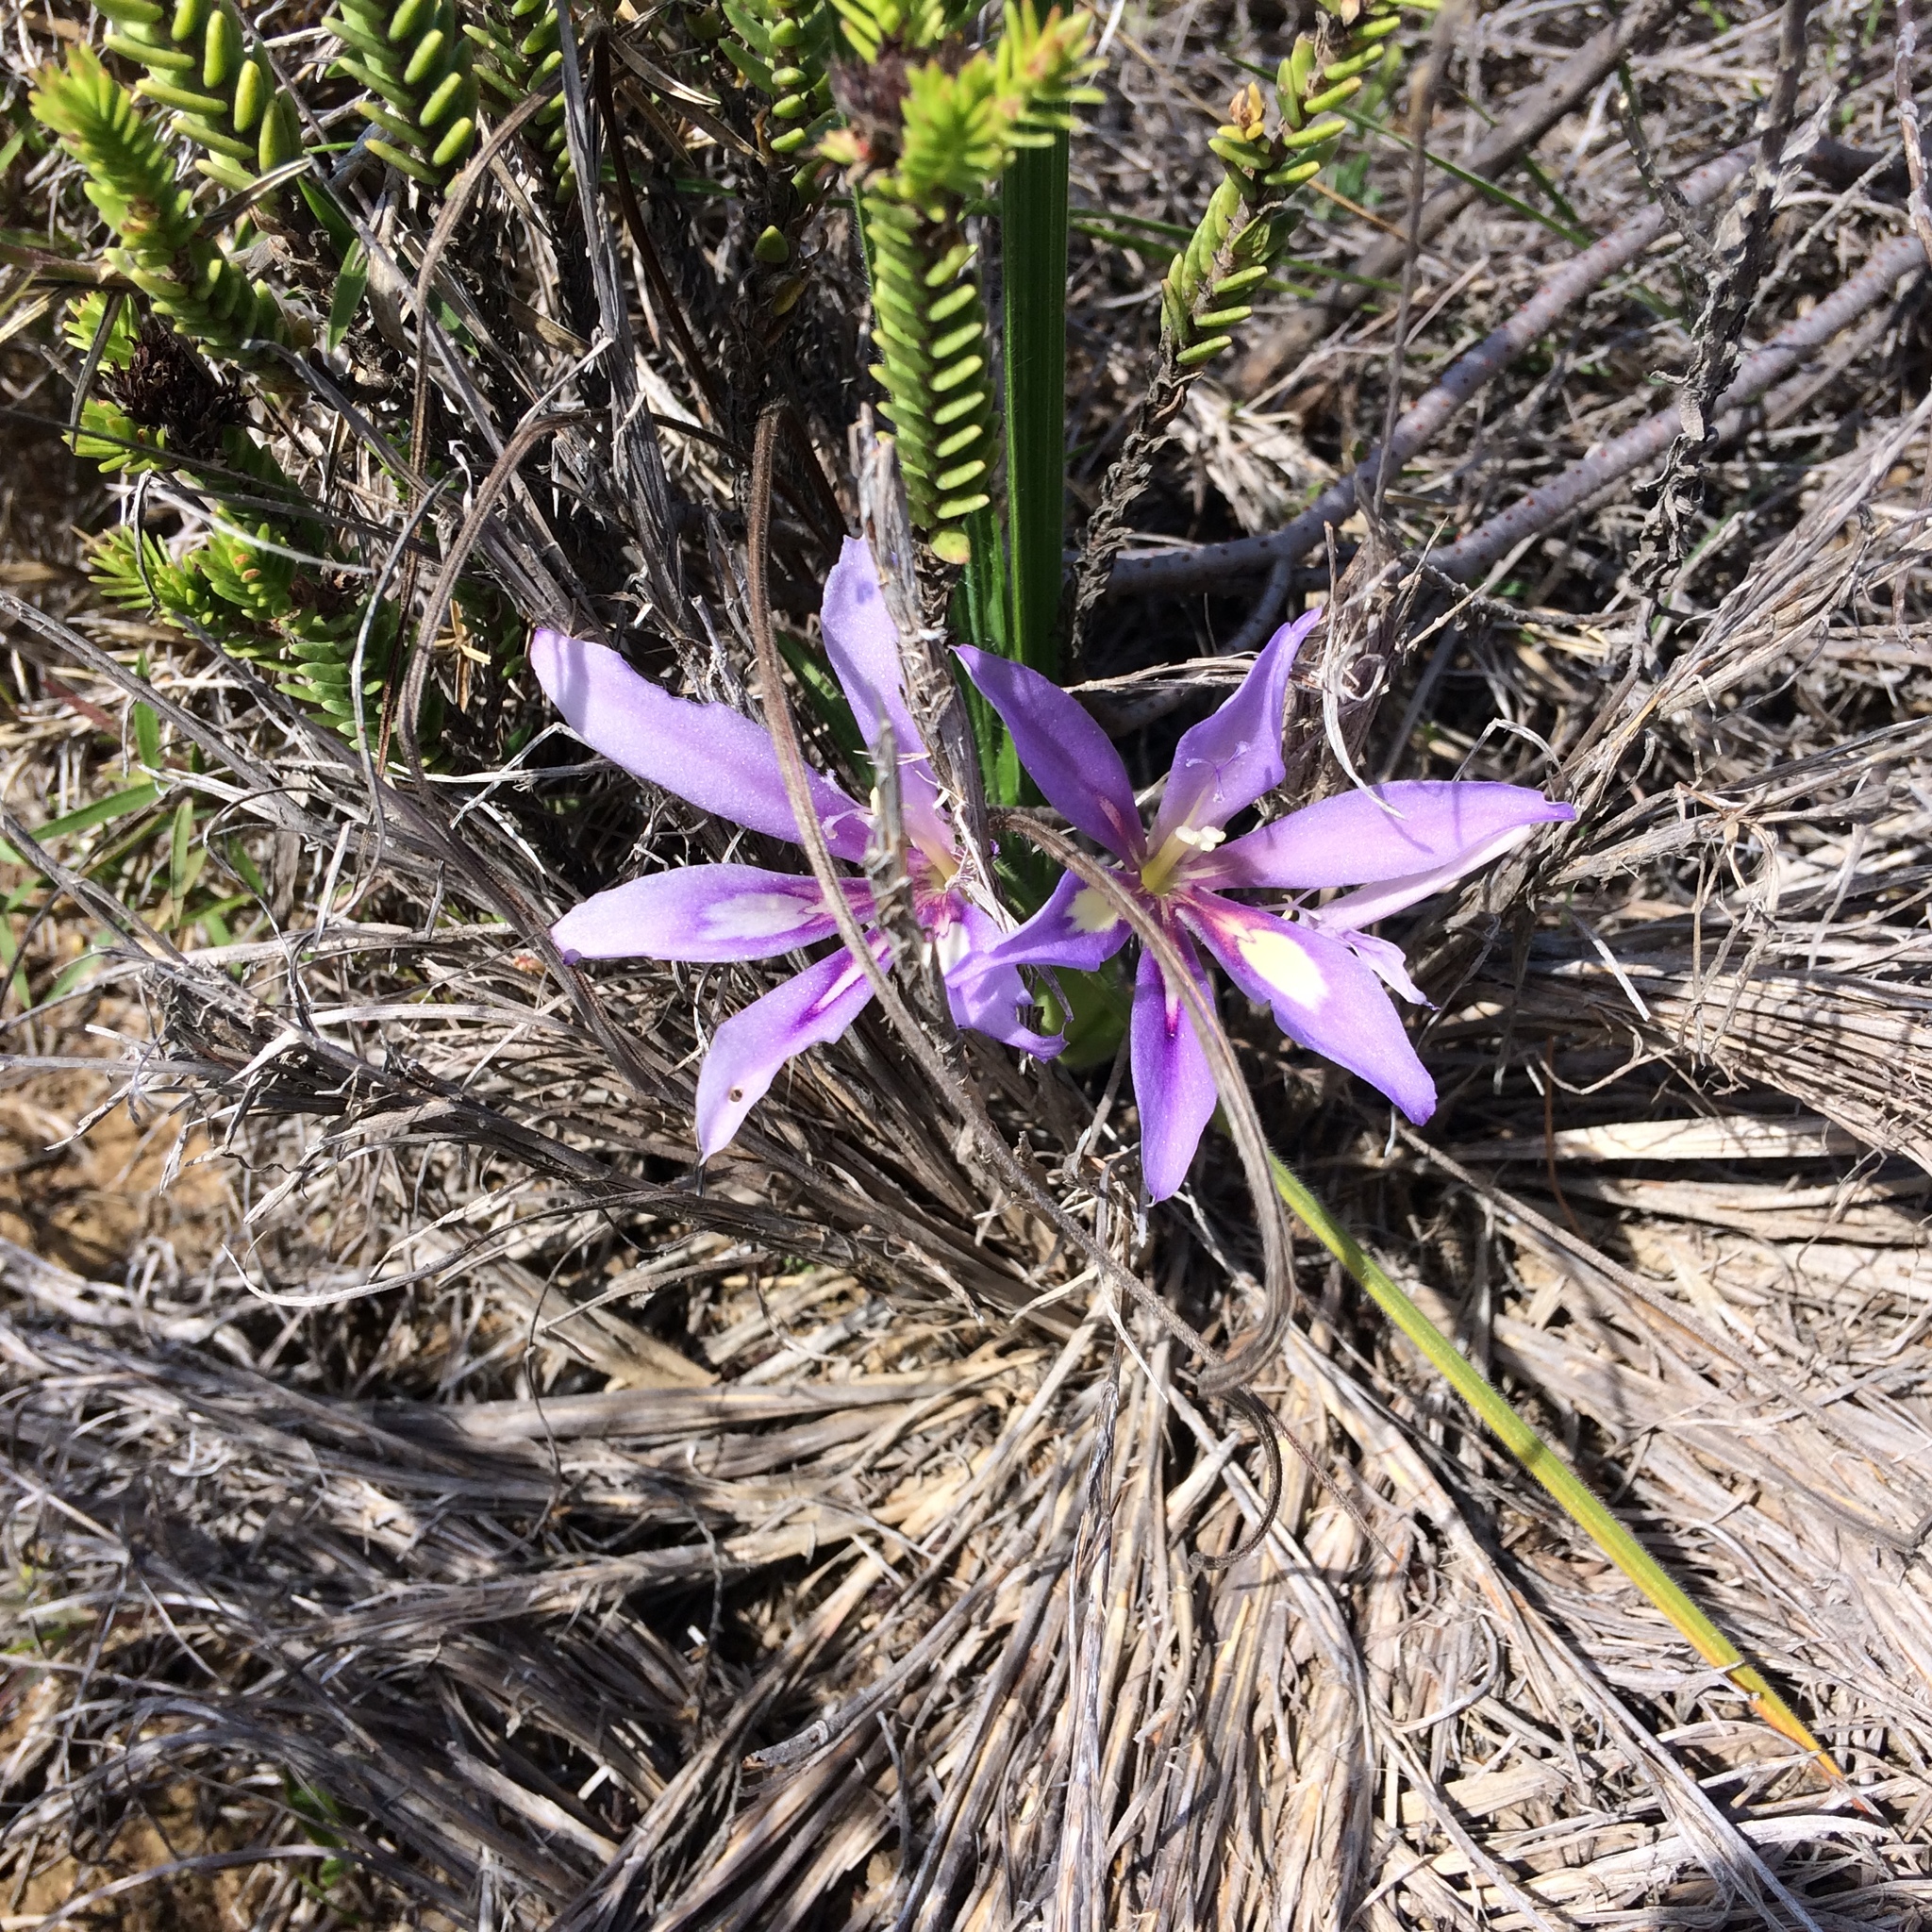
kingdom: Plantae
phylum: Tracheophyta
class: Liliopsida
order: Asparagales
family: Iridaceae
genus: Babiana
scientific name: Babiana sambucina
